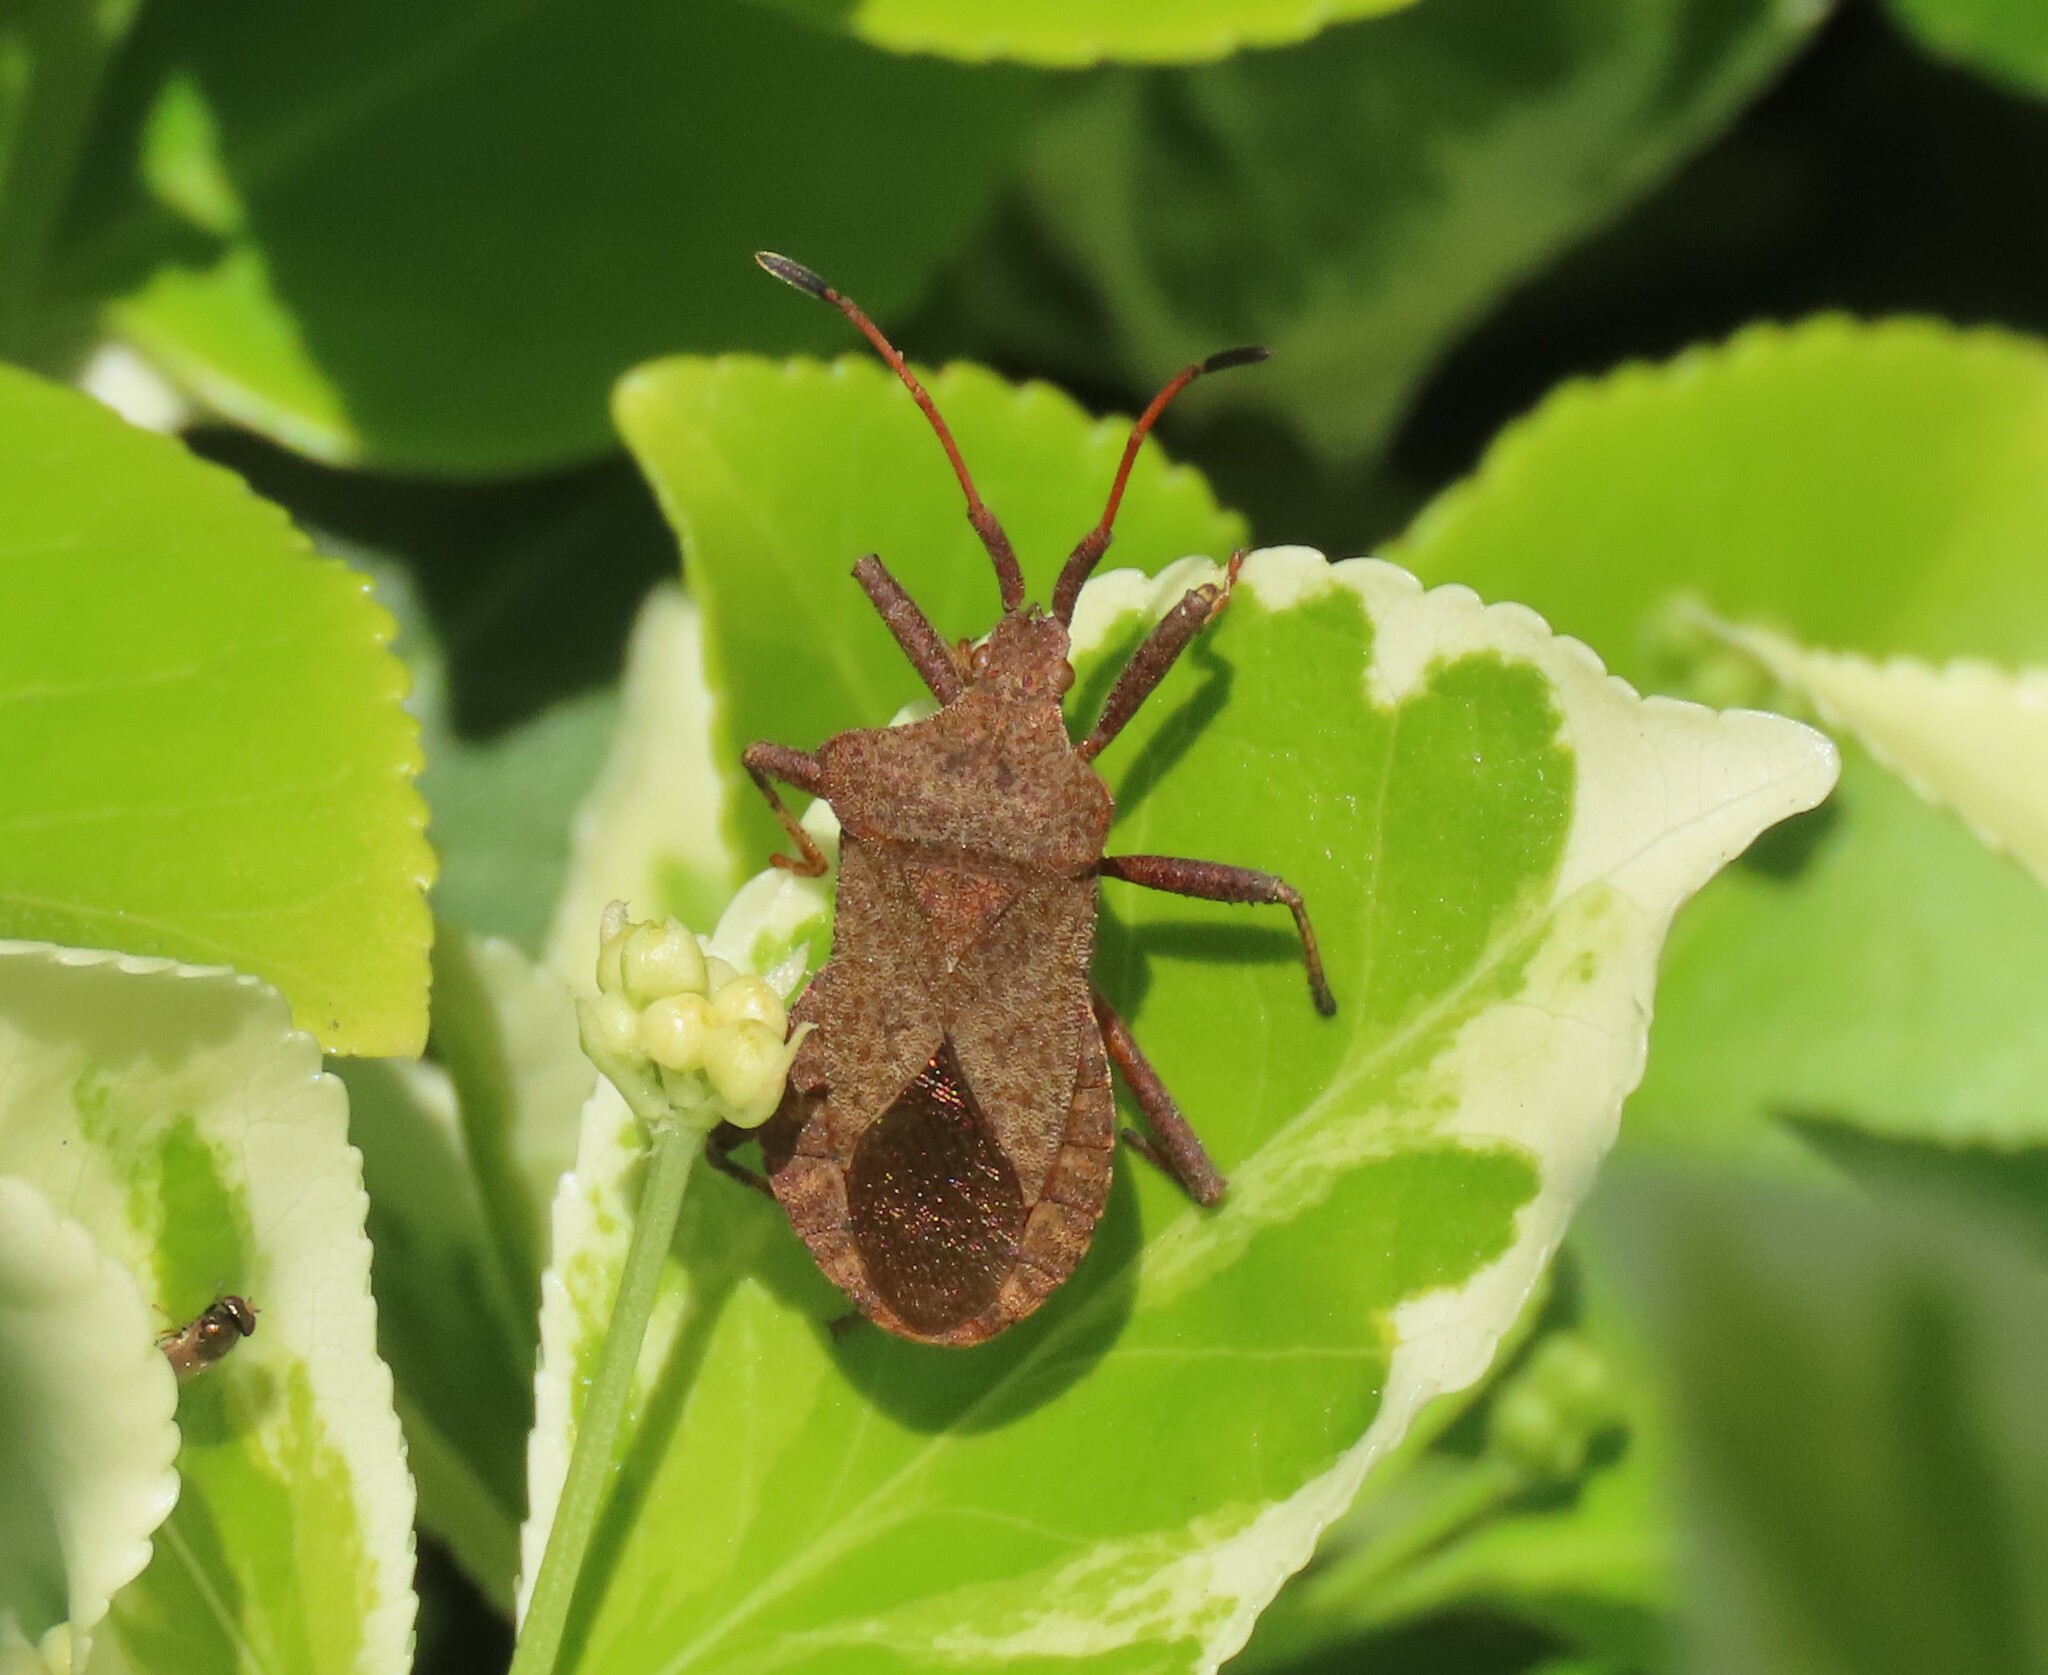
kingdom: Animalia
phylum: Arthropoda
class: Insecta
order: Hemiptera
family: Coreidae
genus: Coreus
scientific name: Coreus marginatus
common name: Dock bug
